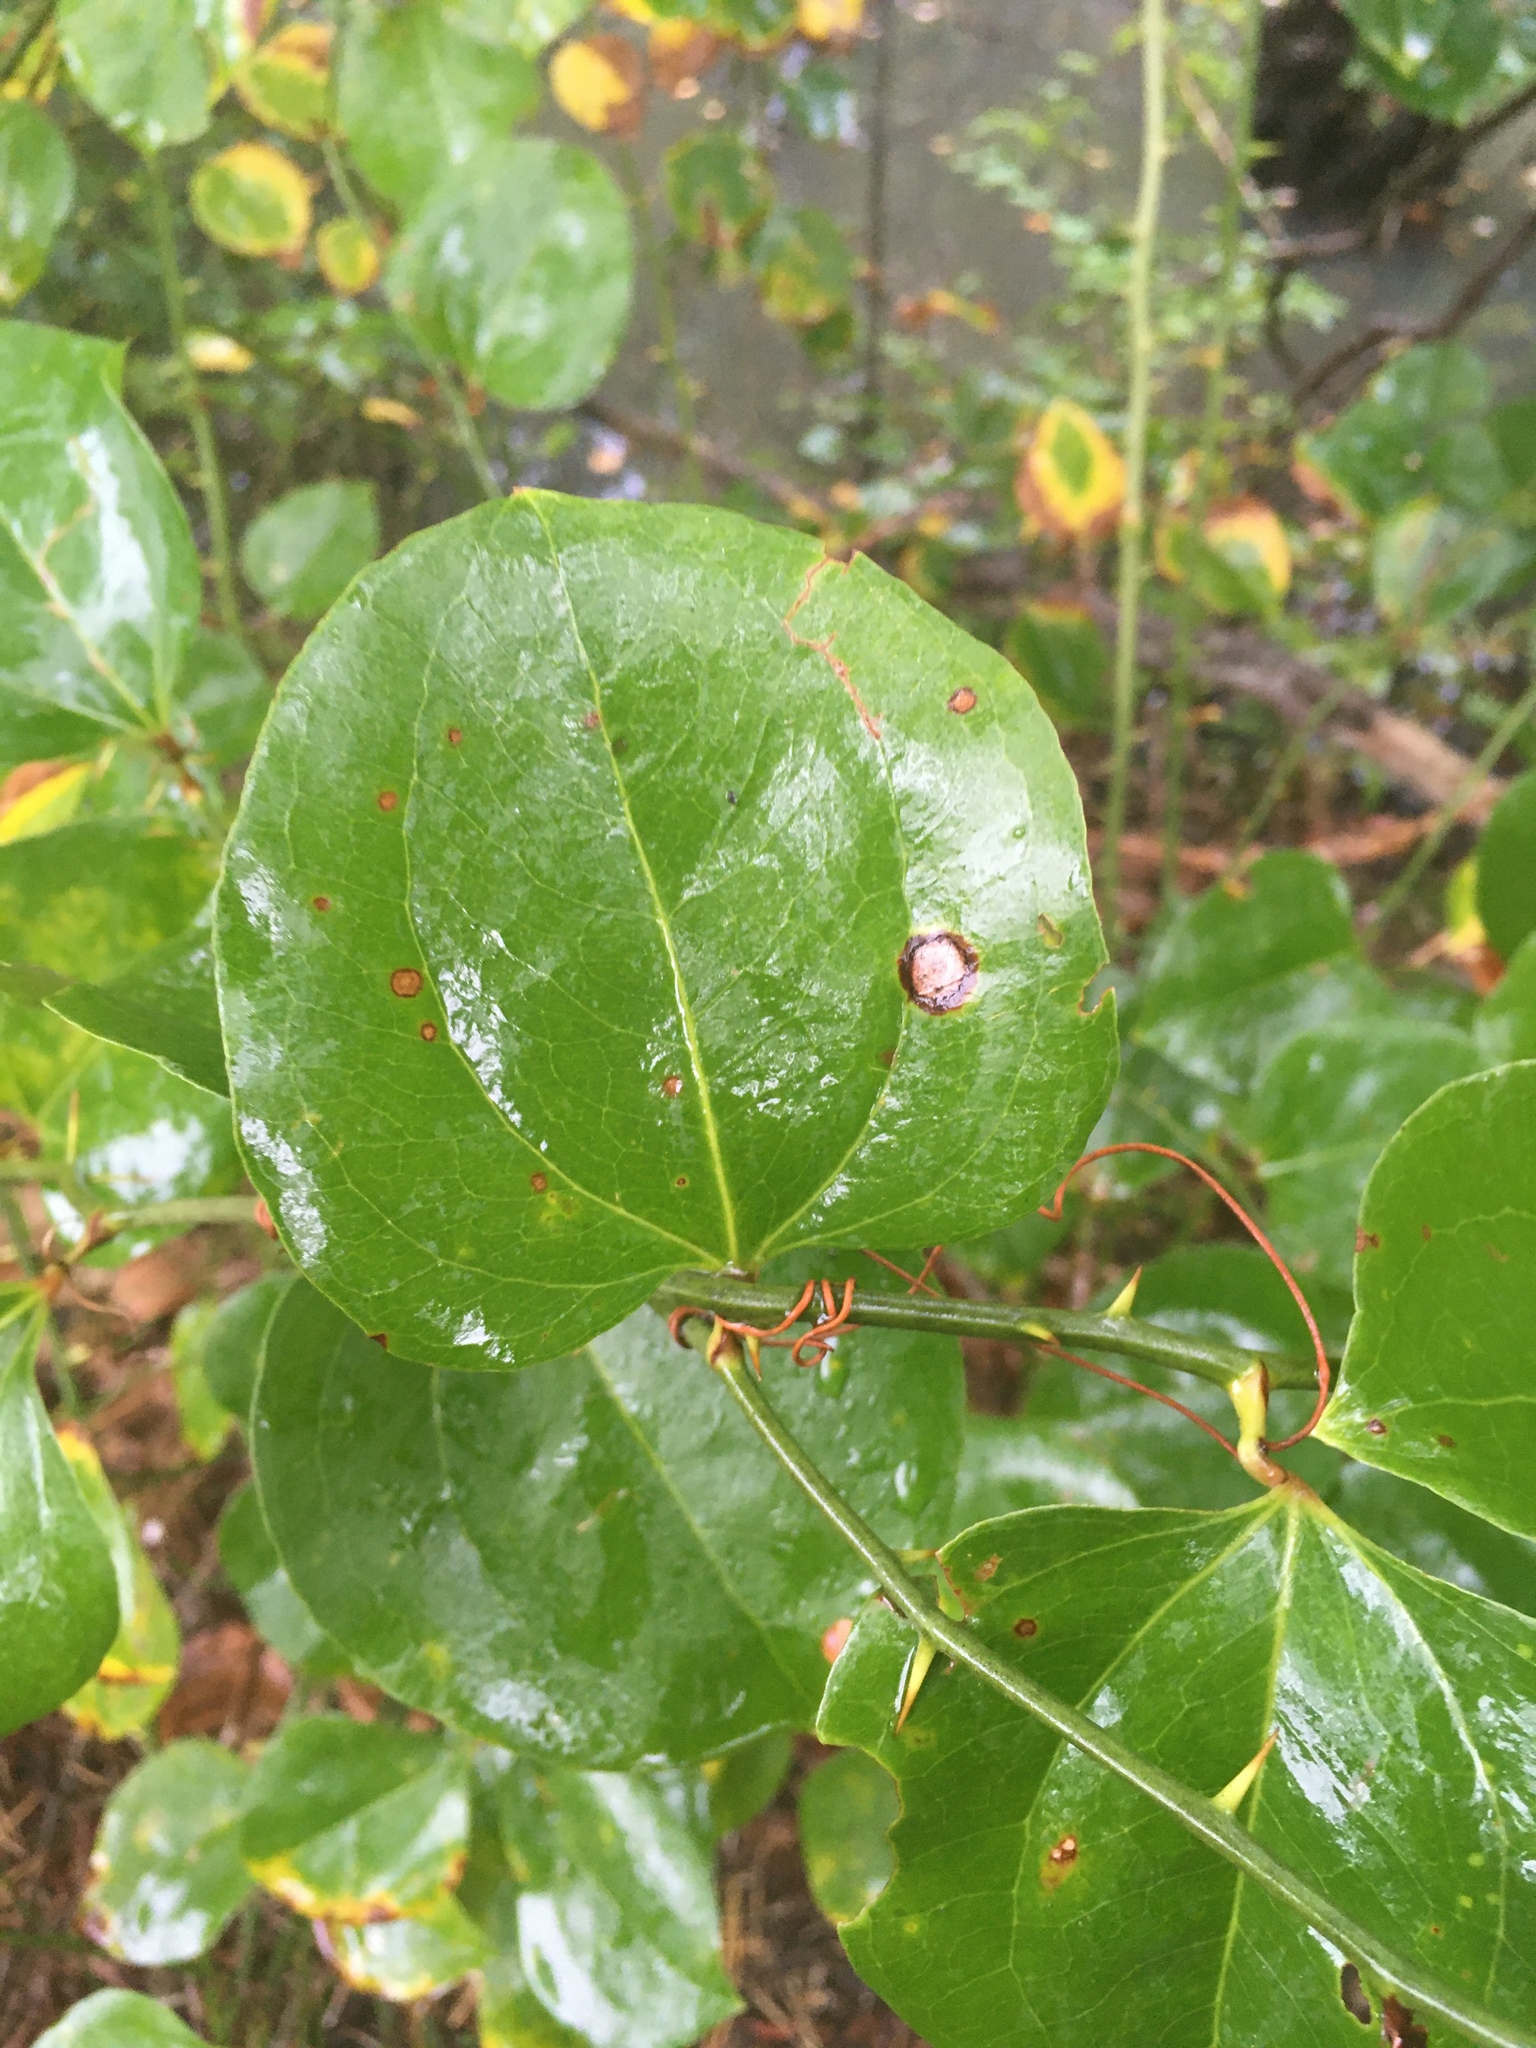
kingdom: Plantae
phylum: Tracheophyta
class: Liliopsida
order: Liliales
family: Smilacaceae
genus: Smilax
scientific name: Smilax rotundifolia
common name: Bullbriar
